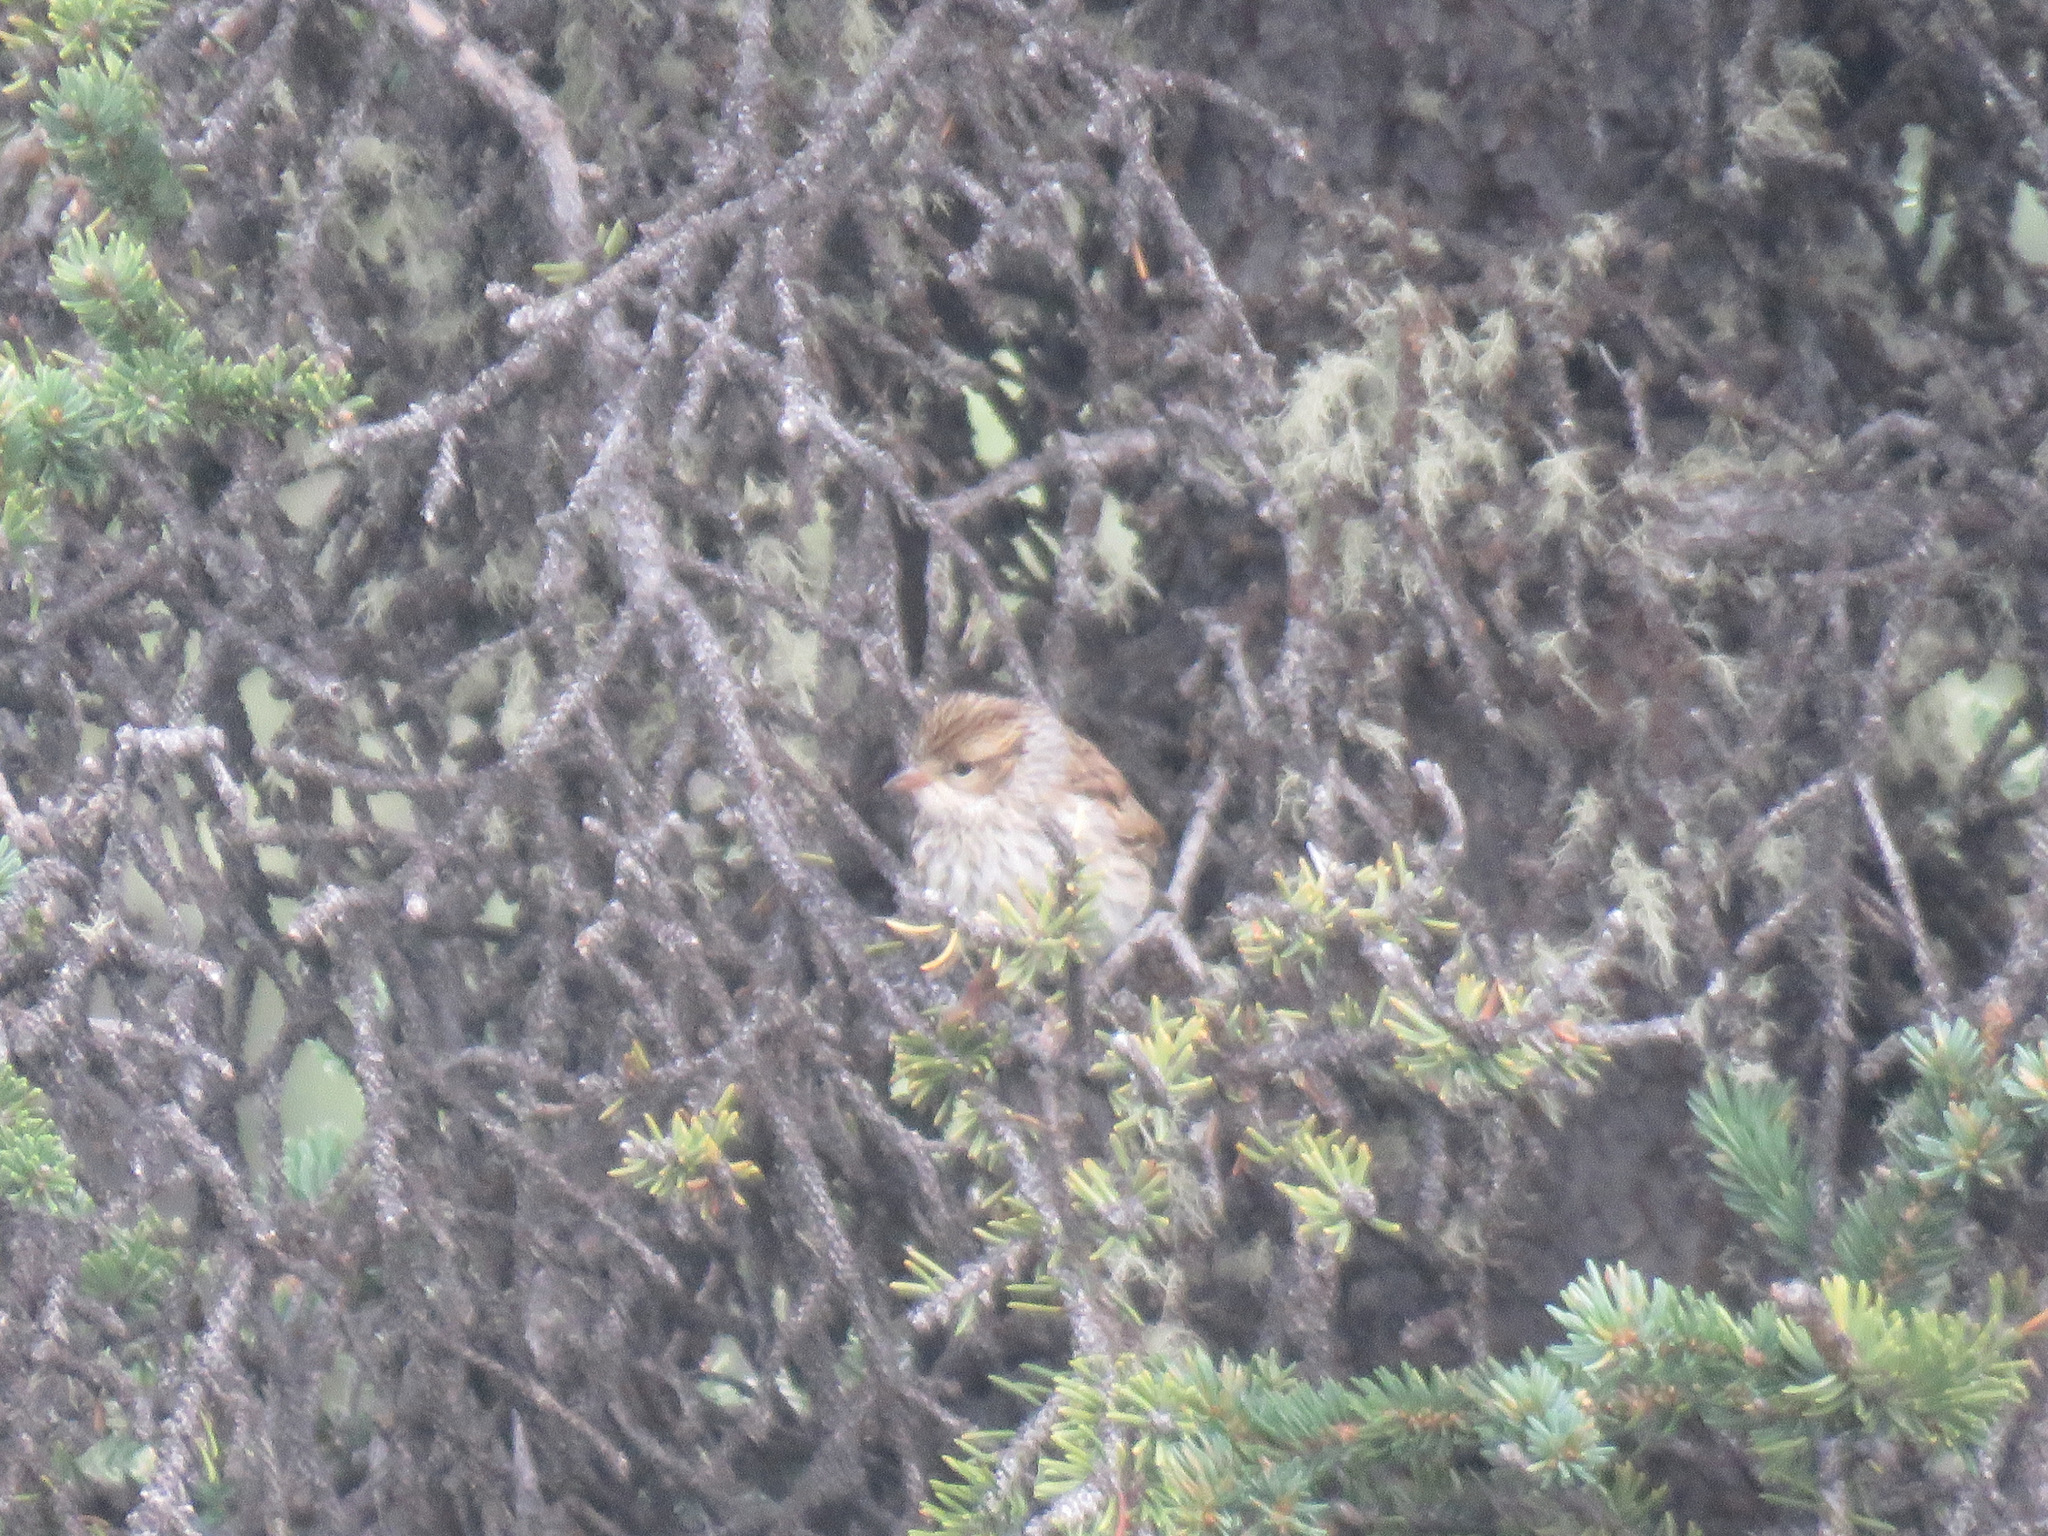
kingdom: Animalia
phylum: Chordata
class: Aves
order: Passeriformes
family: Passerellidae
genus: Spizella
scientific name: Spizella passerina
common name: Chipping sparrow
